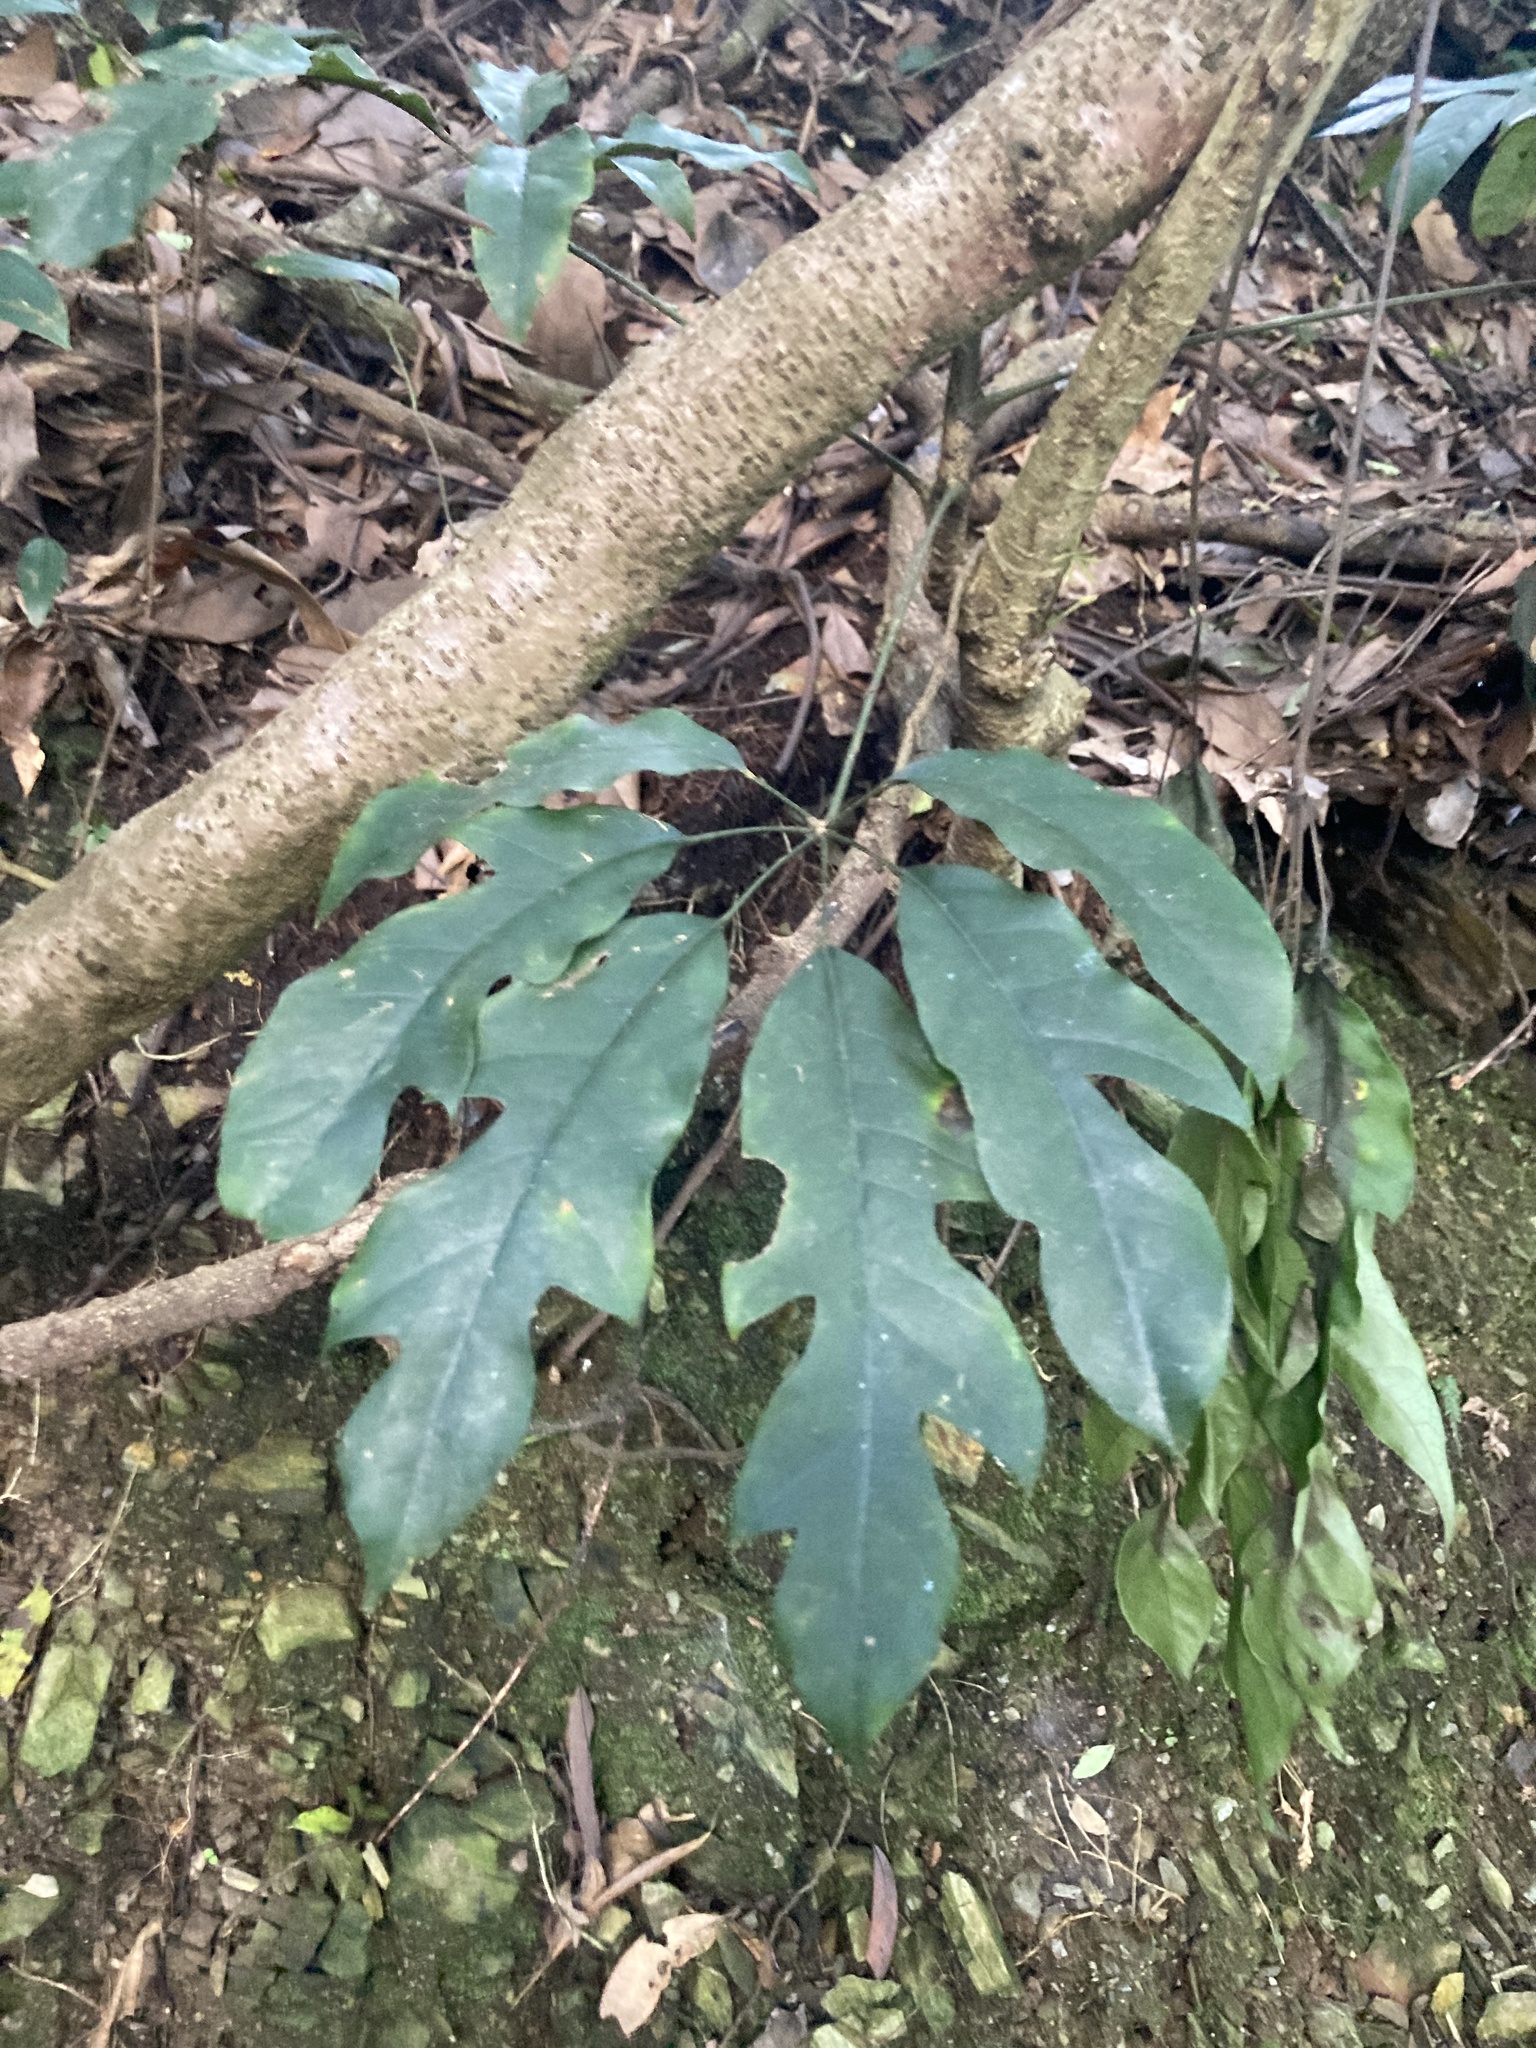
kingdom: Plantae
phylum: Tracheophyta
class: Magnoliopsida
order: Apiales
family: Araliaceae
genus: Heptapleurum
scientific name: Heptapleurum heptaphyllum
